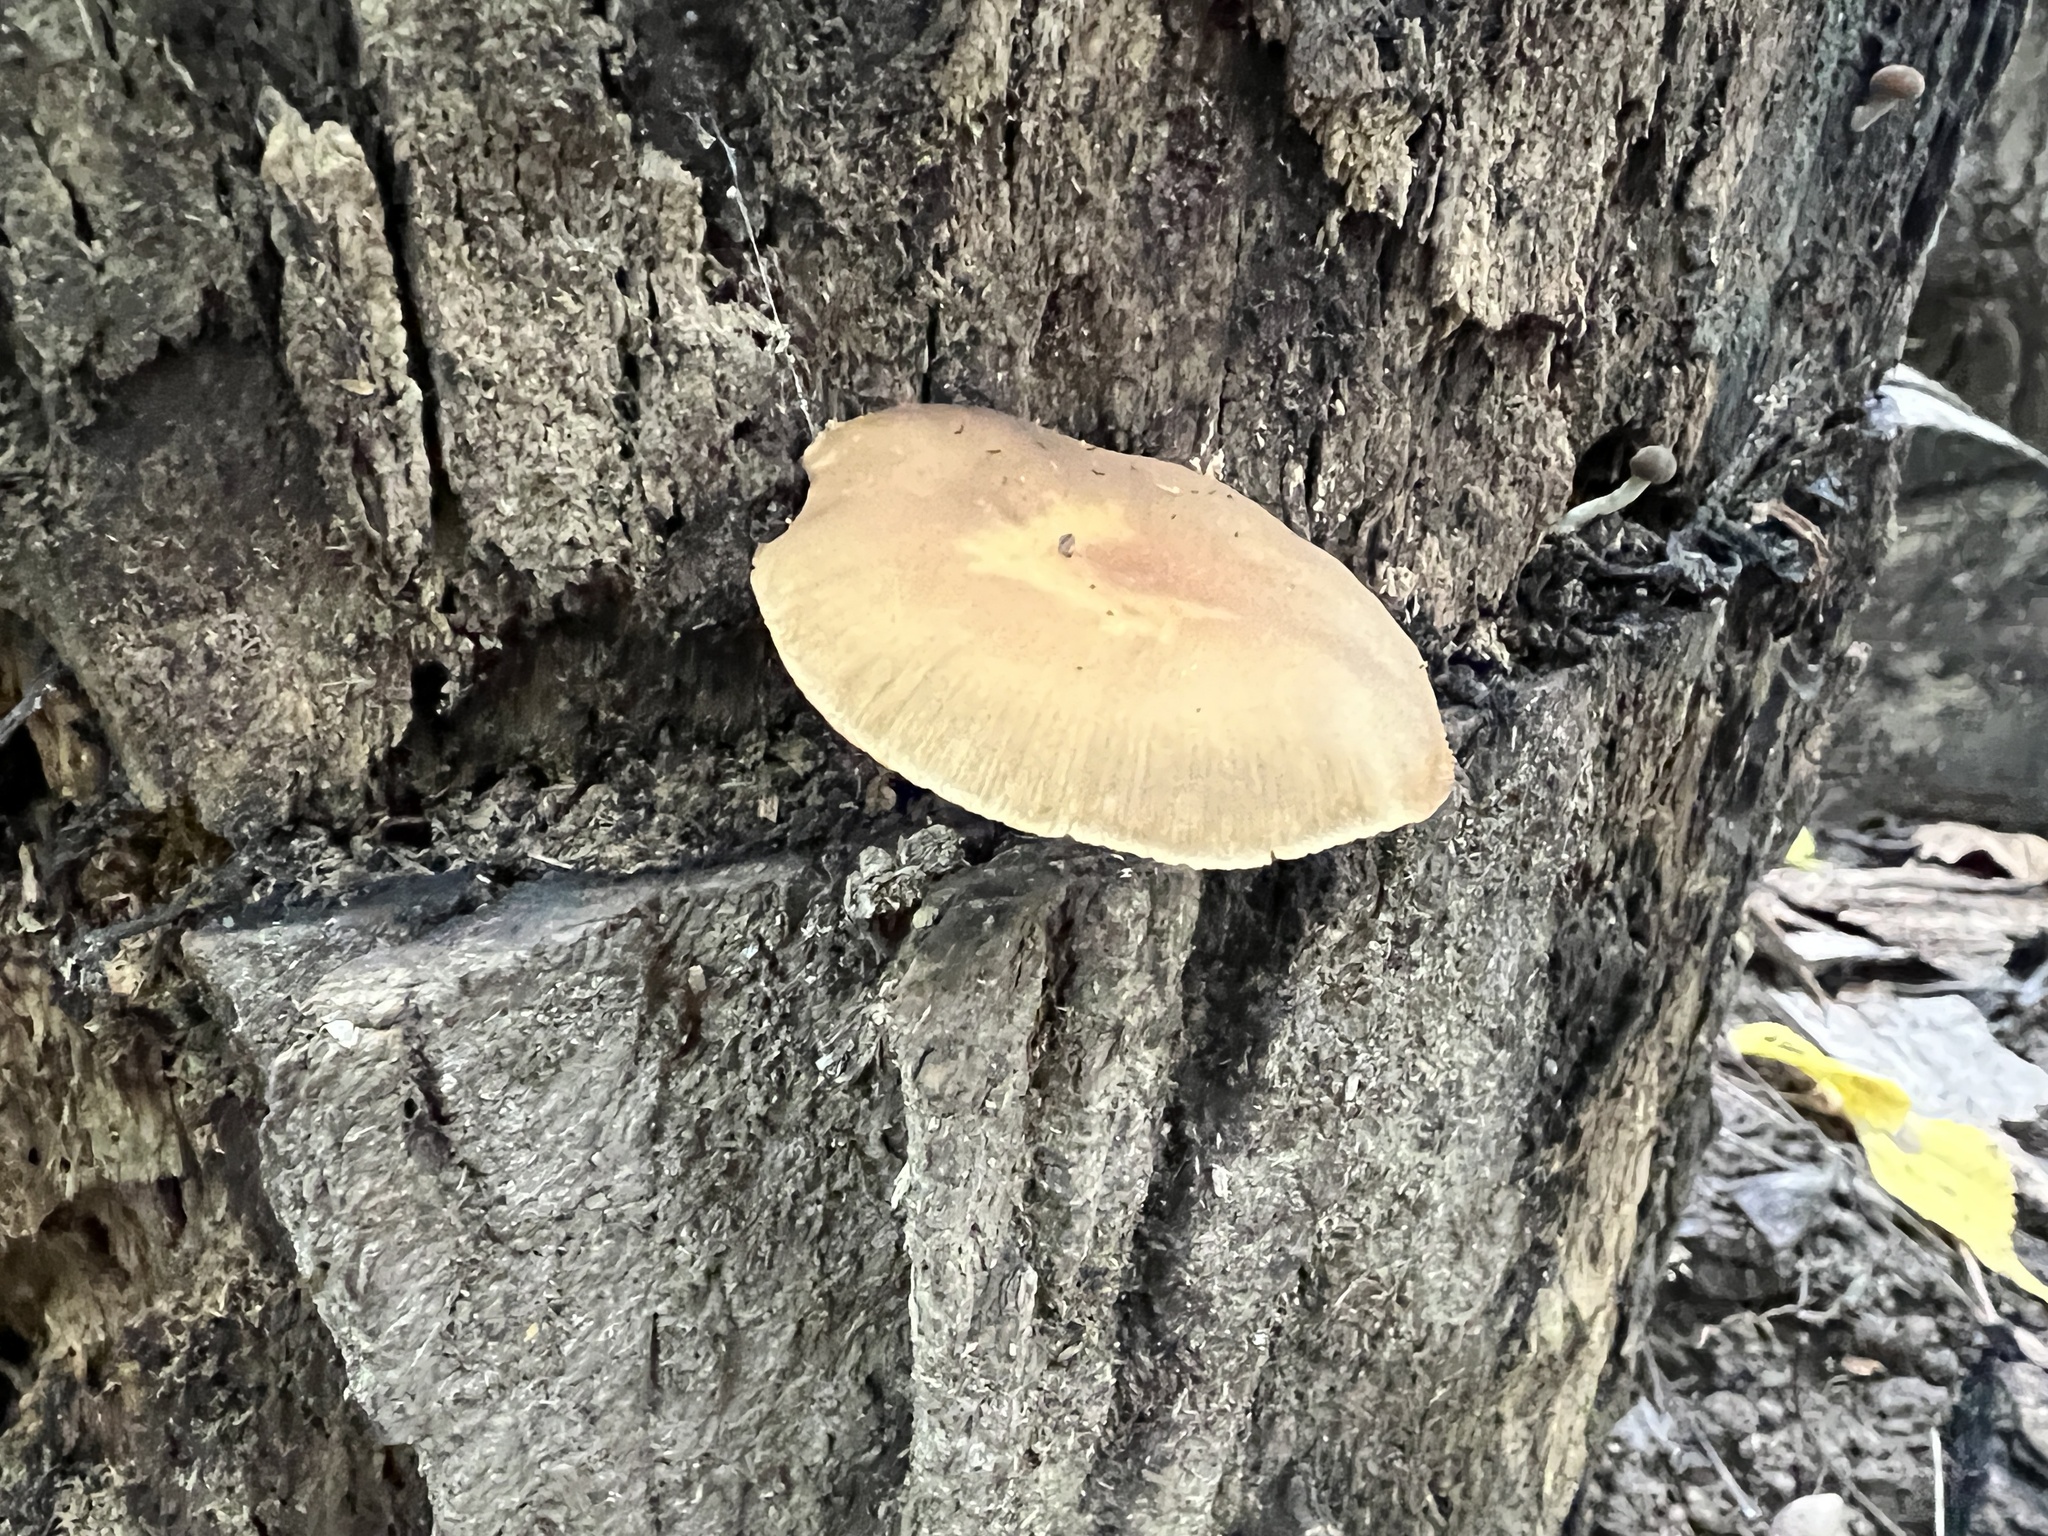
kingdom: Fungi
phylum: Basidiomycota
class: Agaricomycetes
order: Agaricales
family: Crepidotaceae
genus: Simocybe
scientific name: Simocybe serrulata
